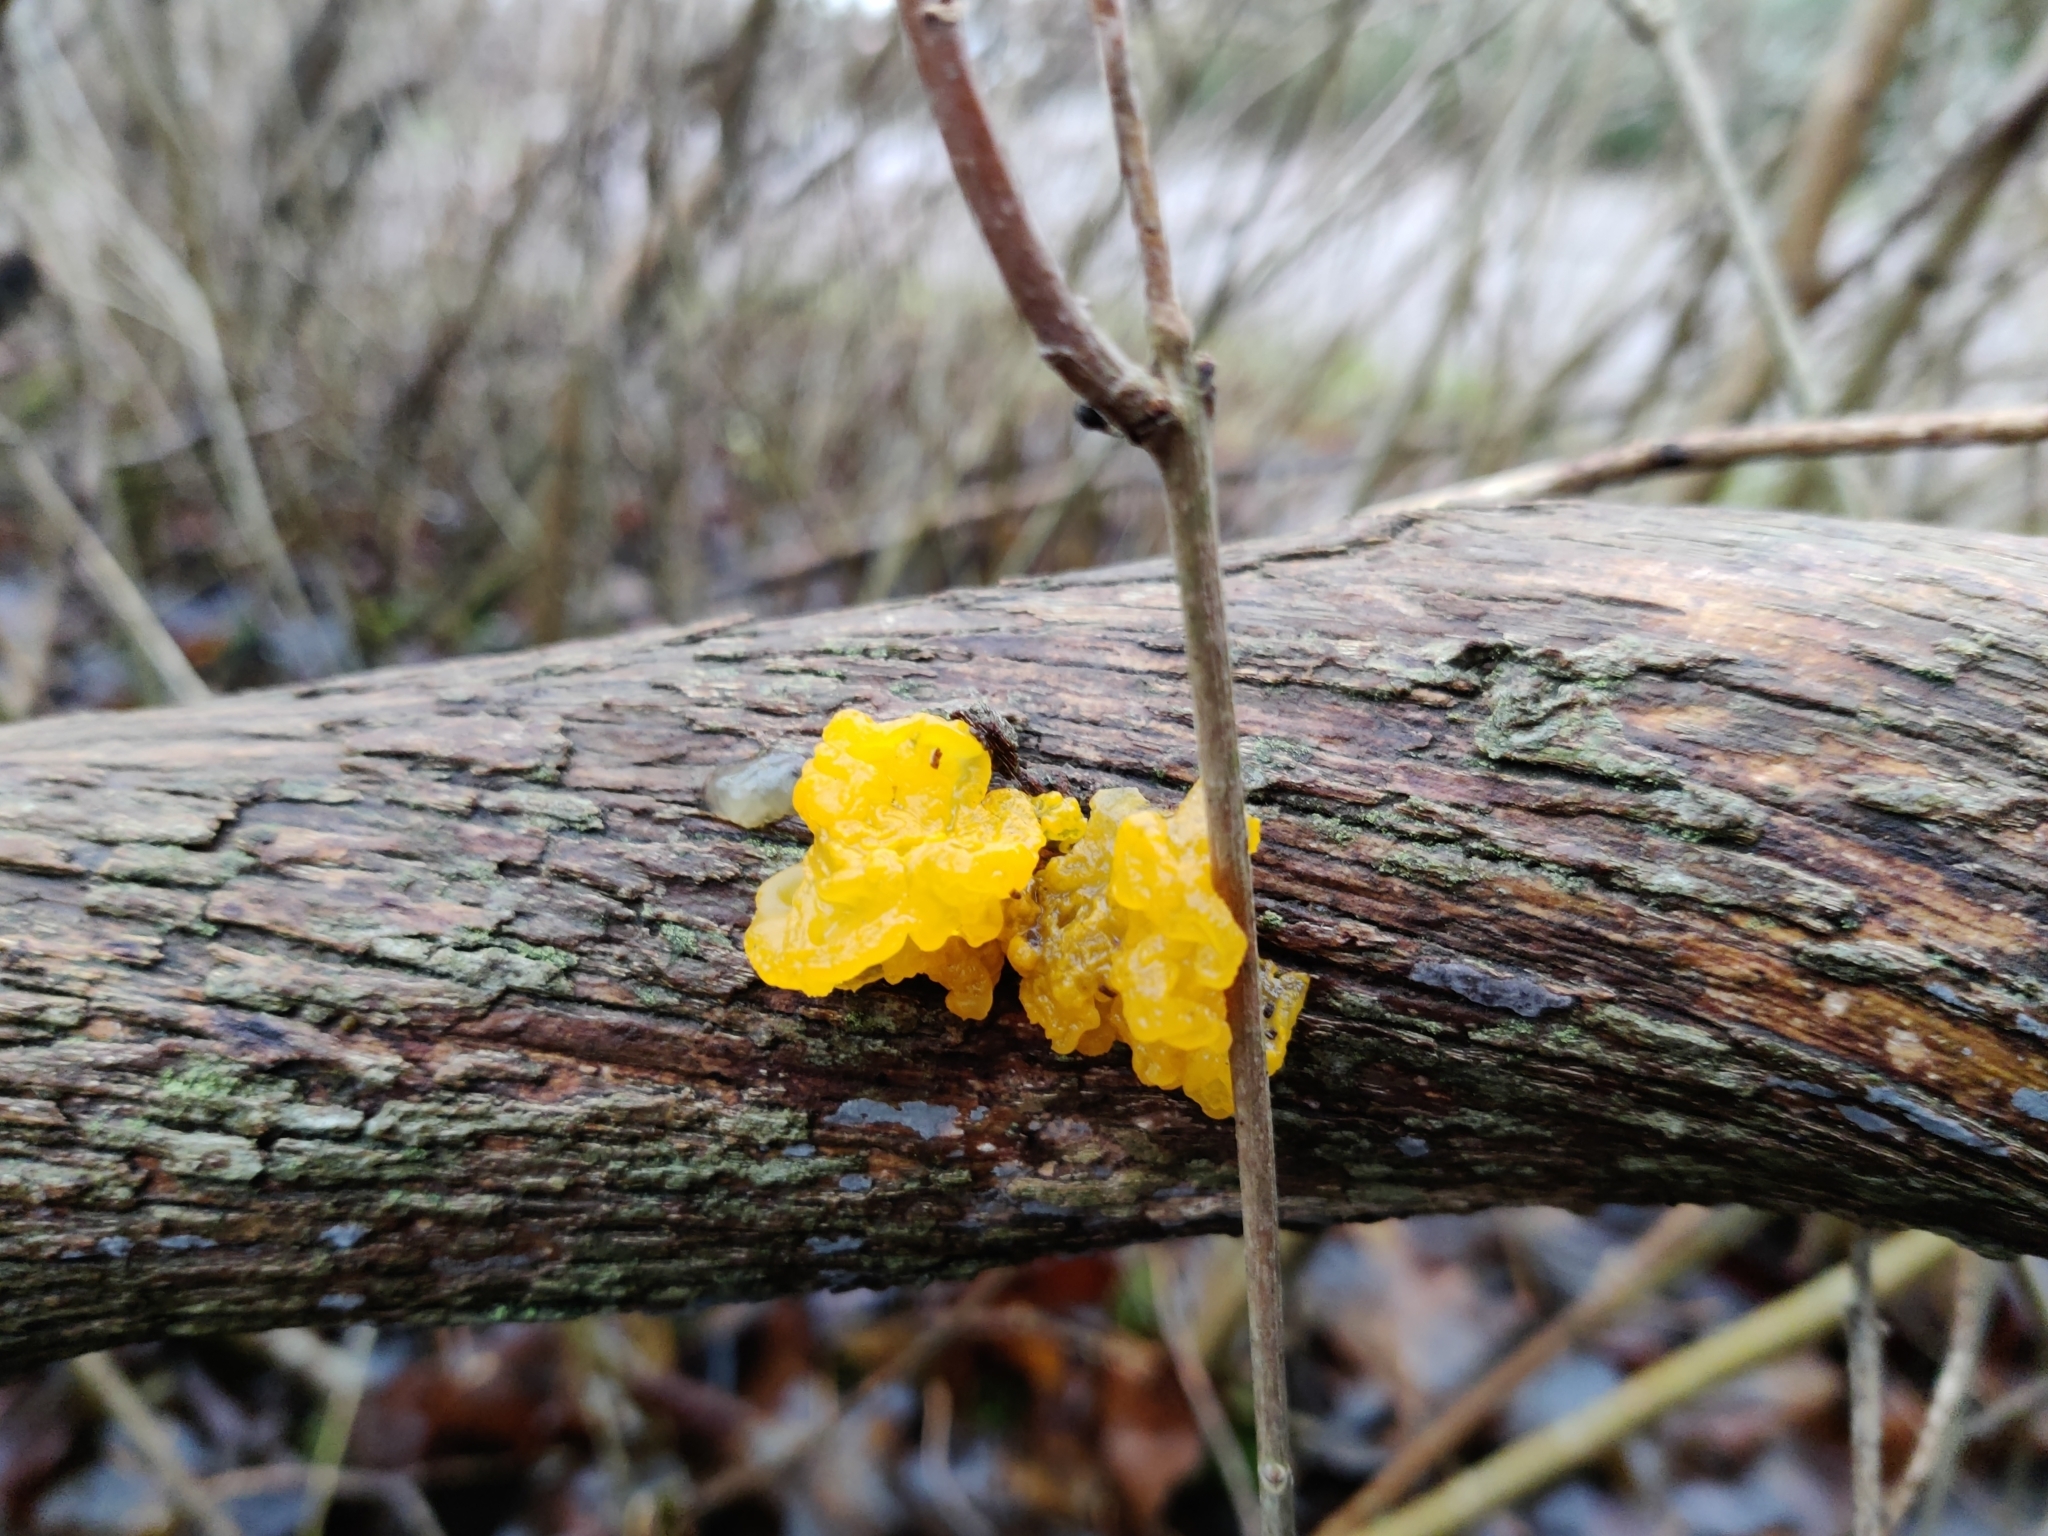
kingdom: Fungi
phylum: Basidiomycota
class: Tremellomycetes
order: Tremellales
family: Tremellaceae
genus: Tremella
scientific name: Tremella mesenterica
